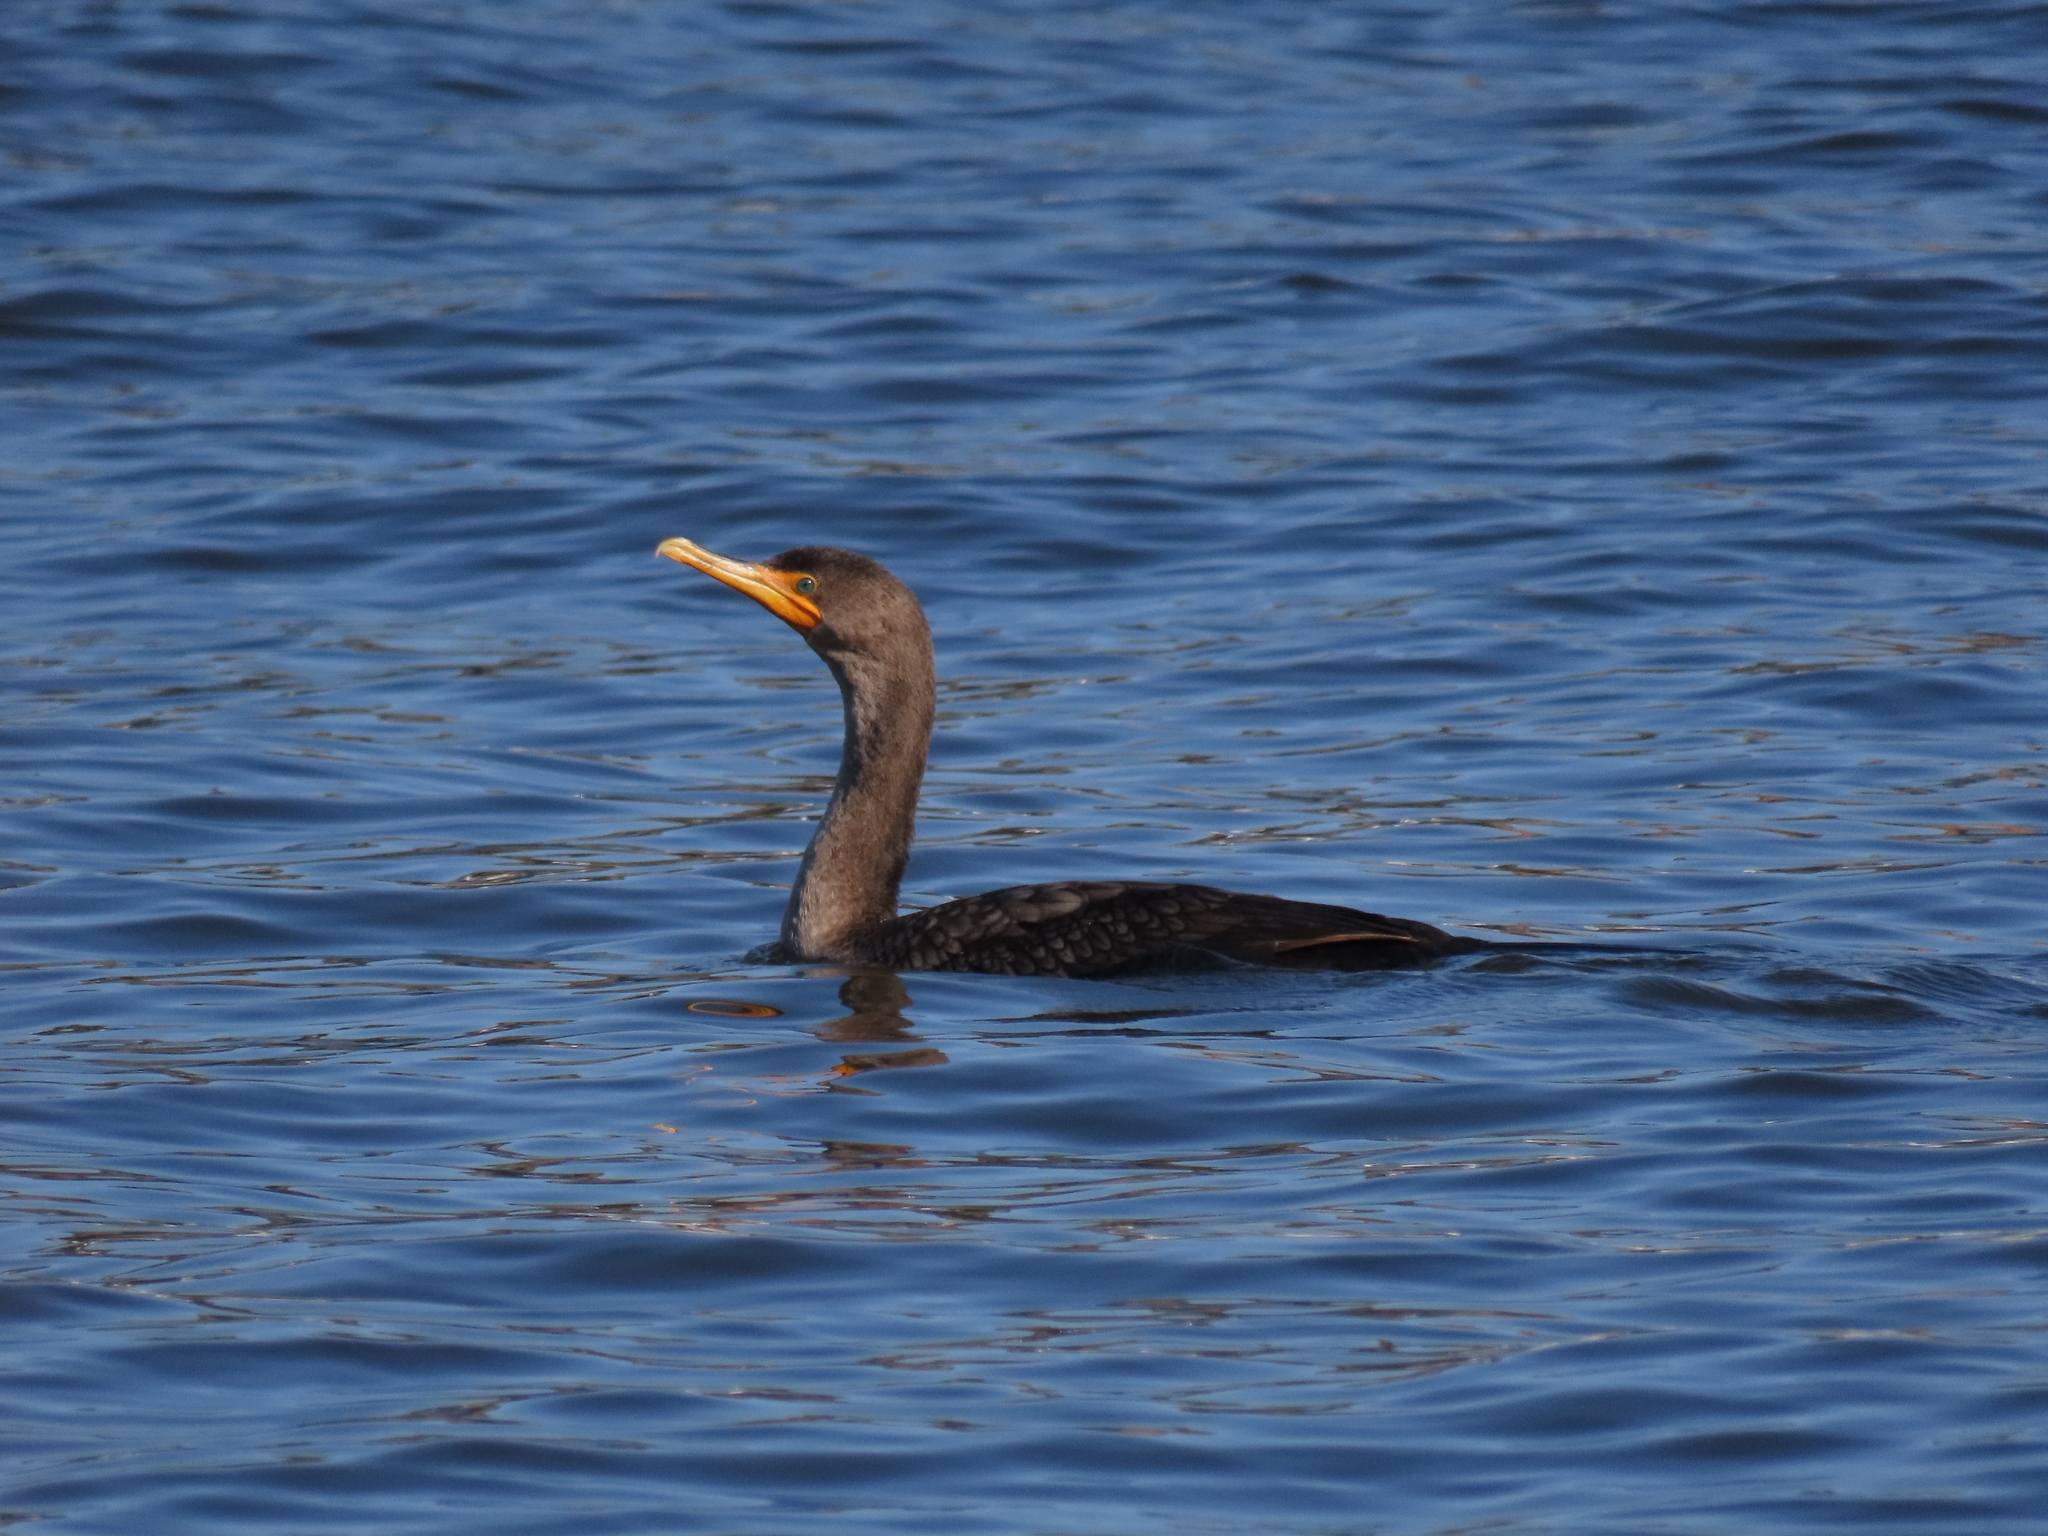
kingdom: Animalia
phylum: Chordata
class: Aves
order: Suliformes
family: Phalacrocoracidae
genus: Phalacrocorax
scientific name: Phalacrocorax auritus
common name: Double-crested cormorant
